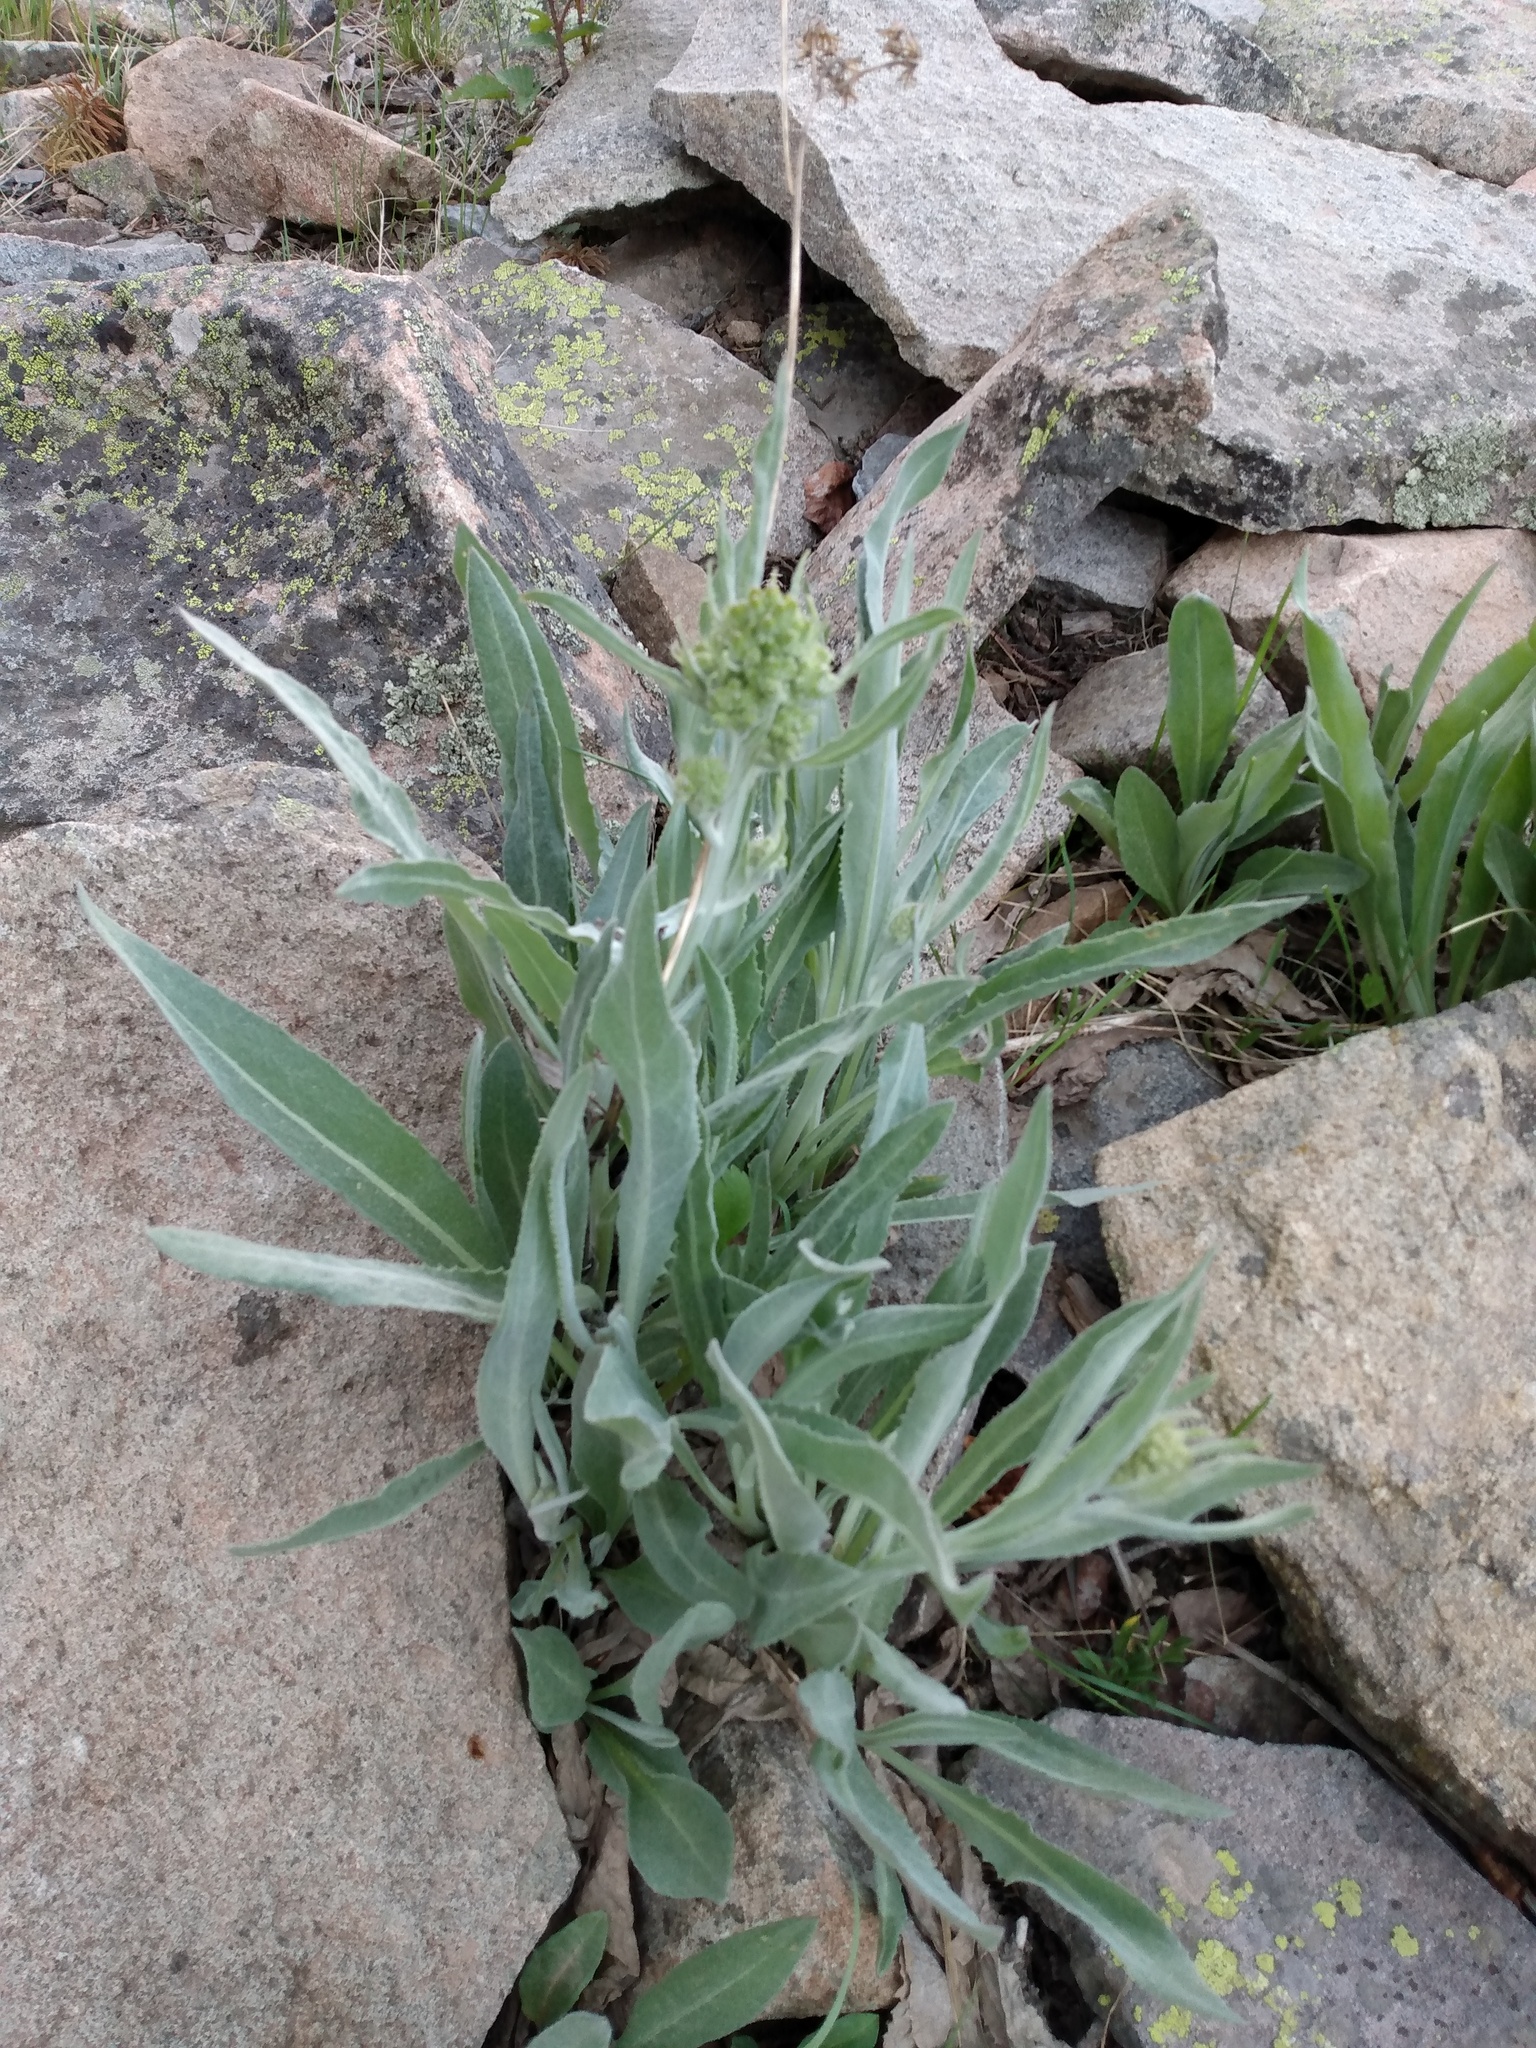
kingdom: Plantae
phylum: Tracheophyta
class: Magnoliopsida
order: Asterales
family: Asteraceae
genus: Senecio
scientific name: Senecio atratus
